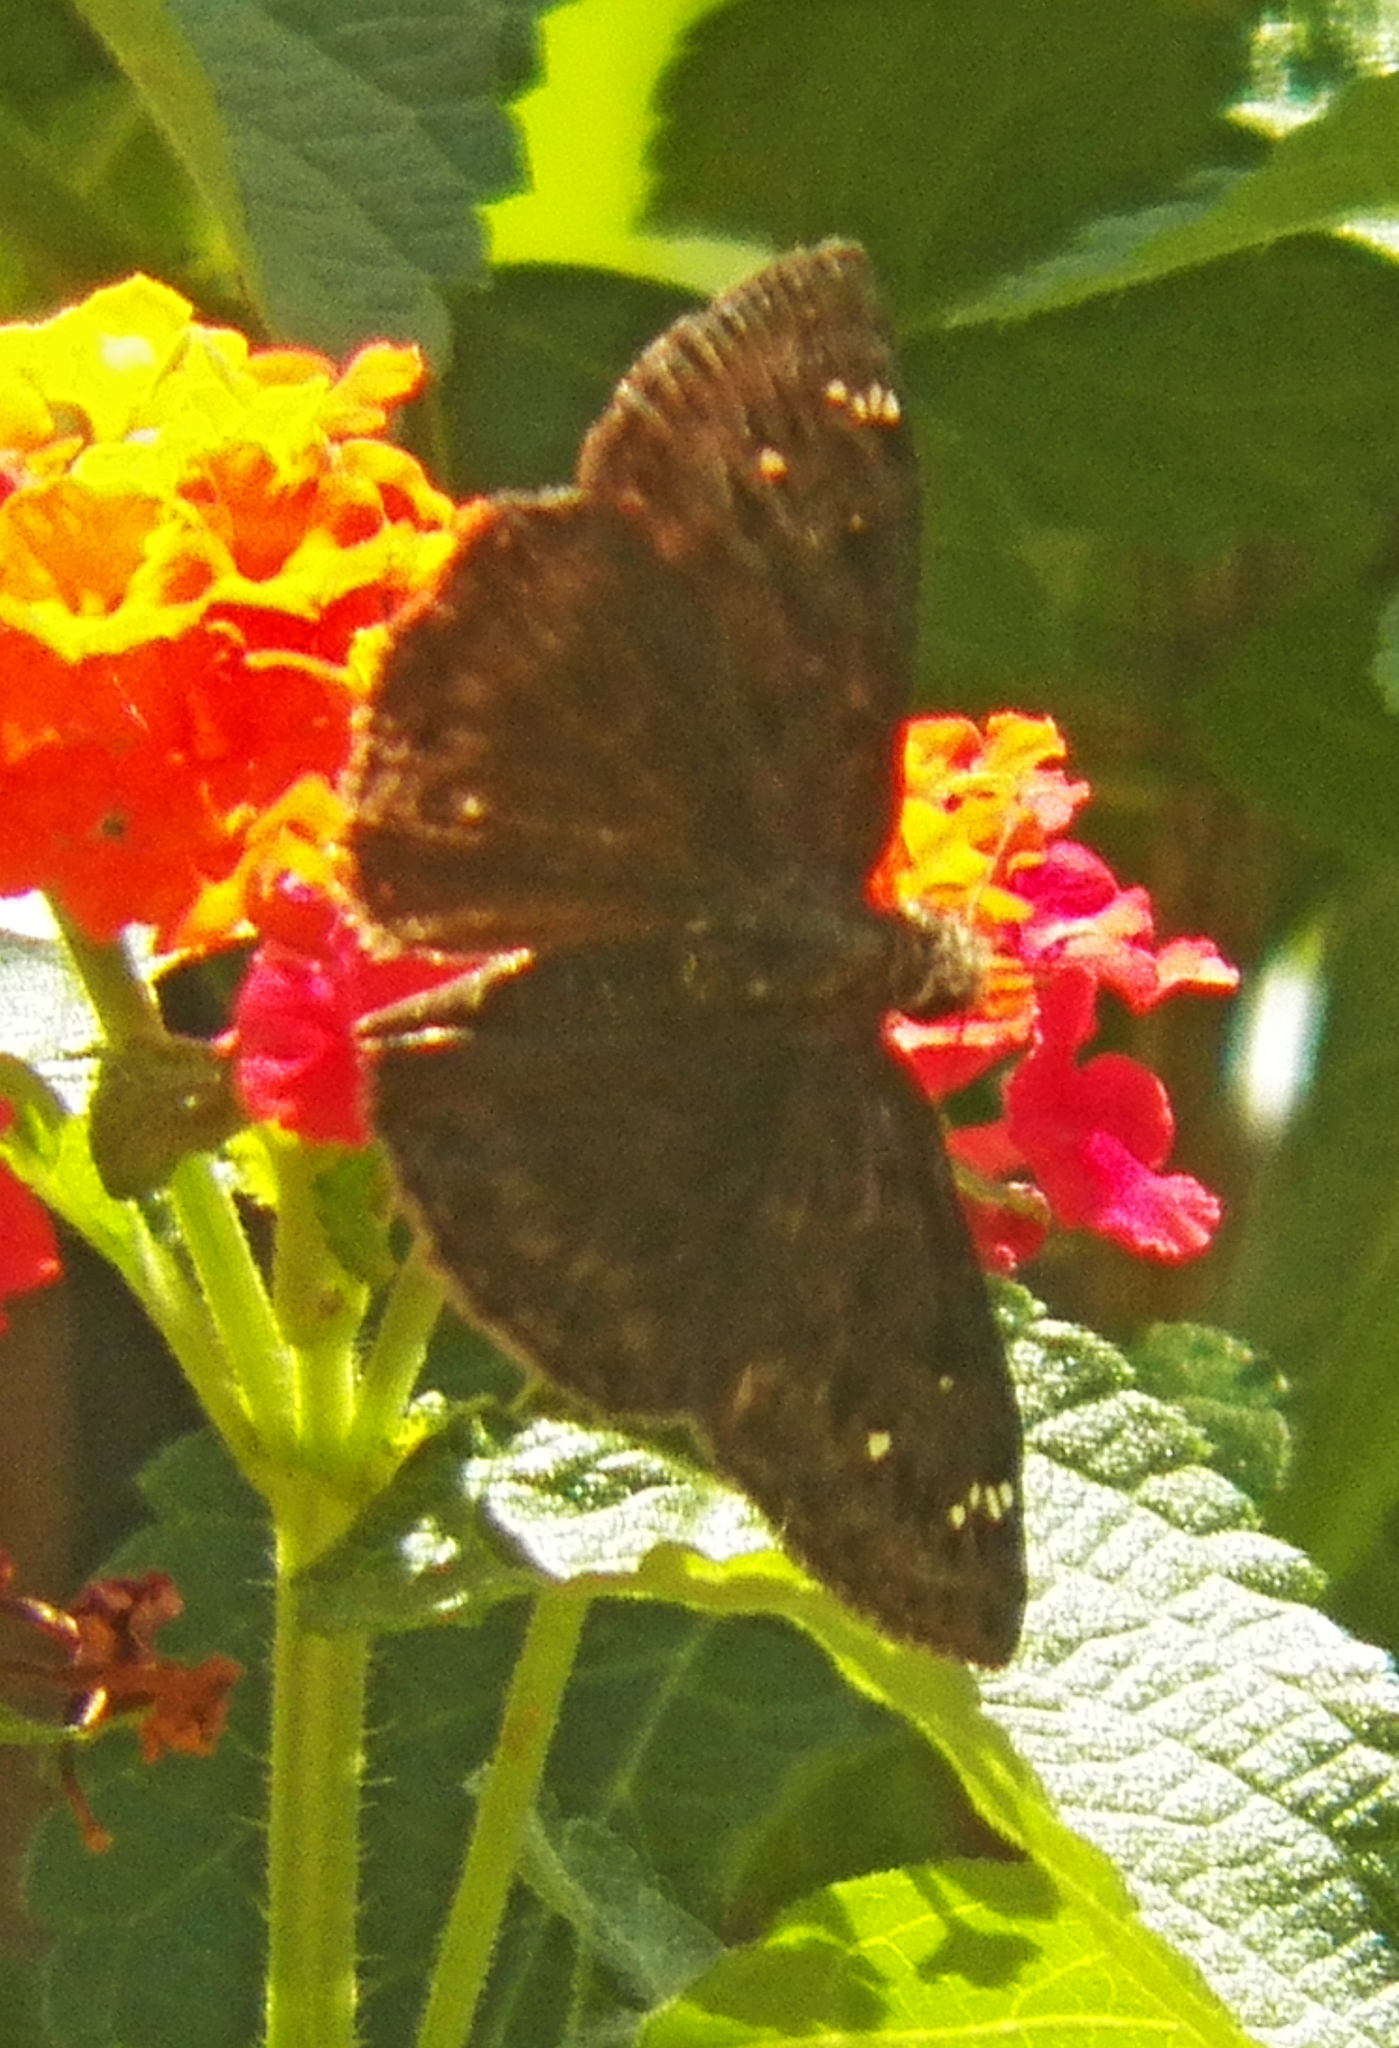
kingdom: Animalia
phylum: Arthropoda
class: Insecta
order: Lepidoptera
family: Hesperiidae
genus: Erynnis
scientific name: Erynnis horatius
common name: Horace's duskywing
